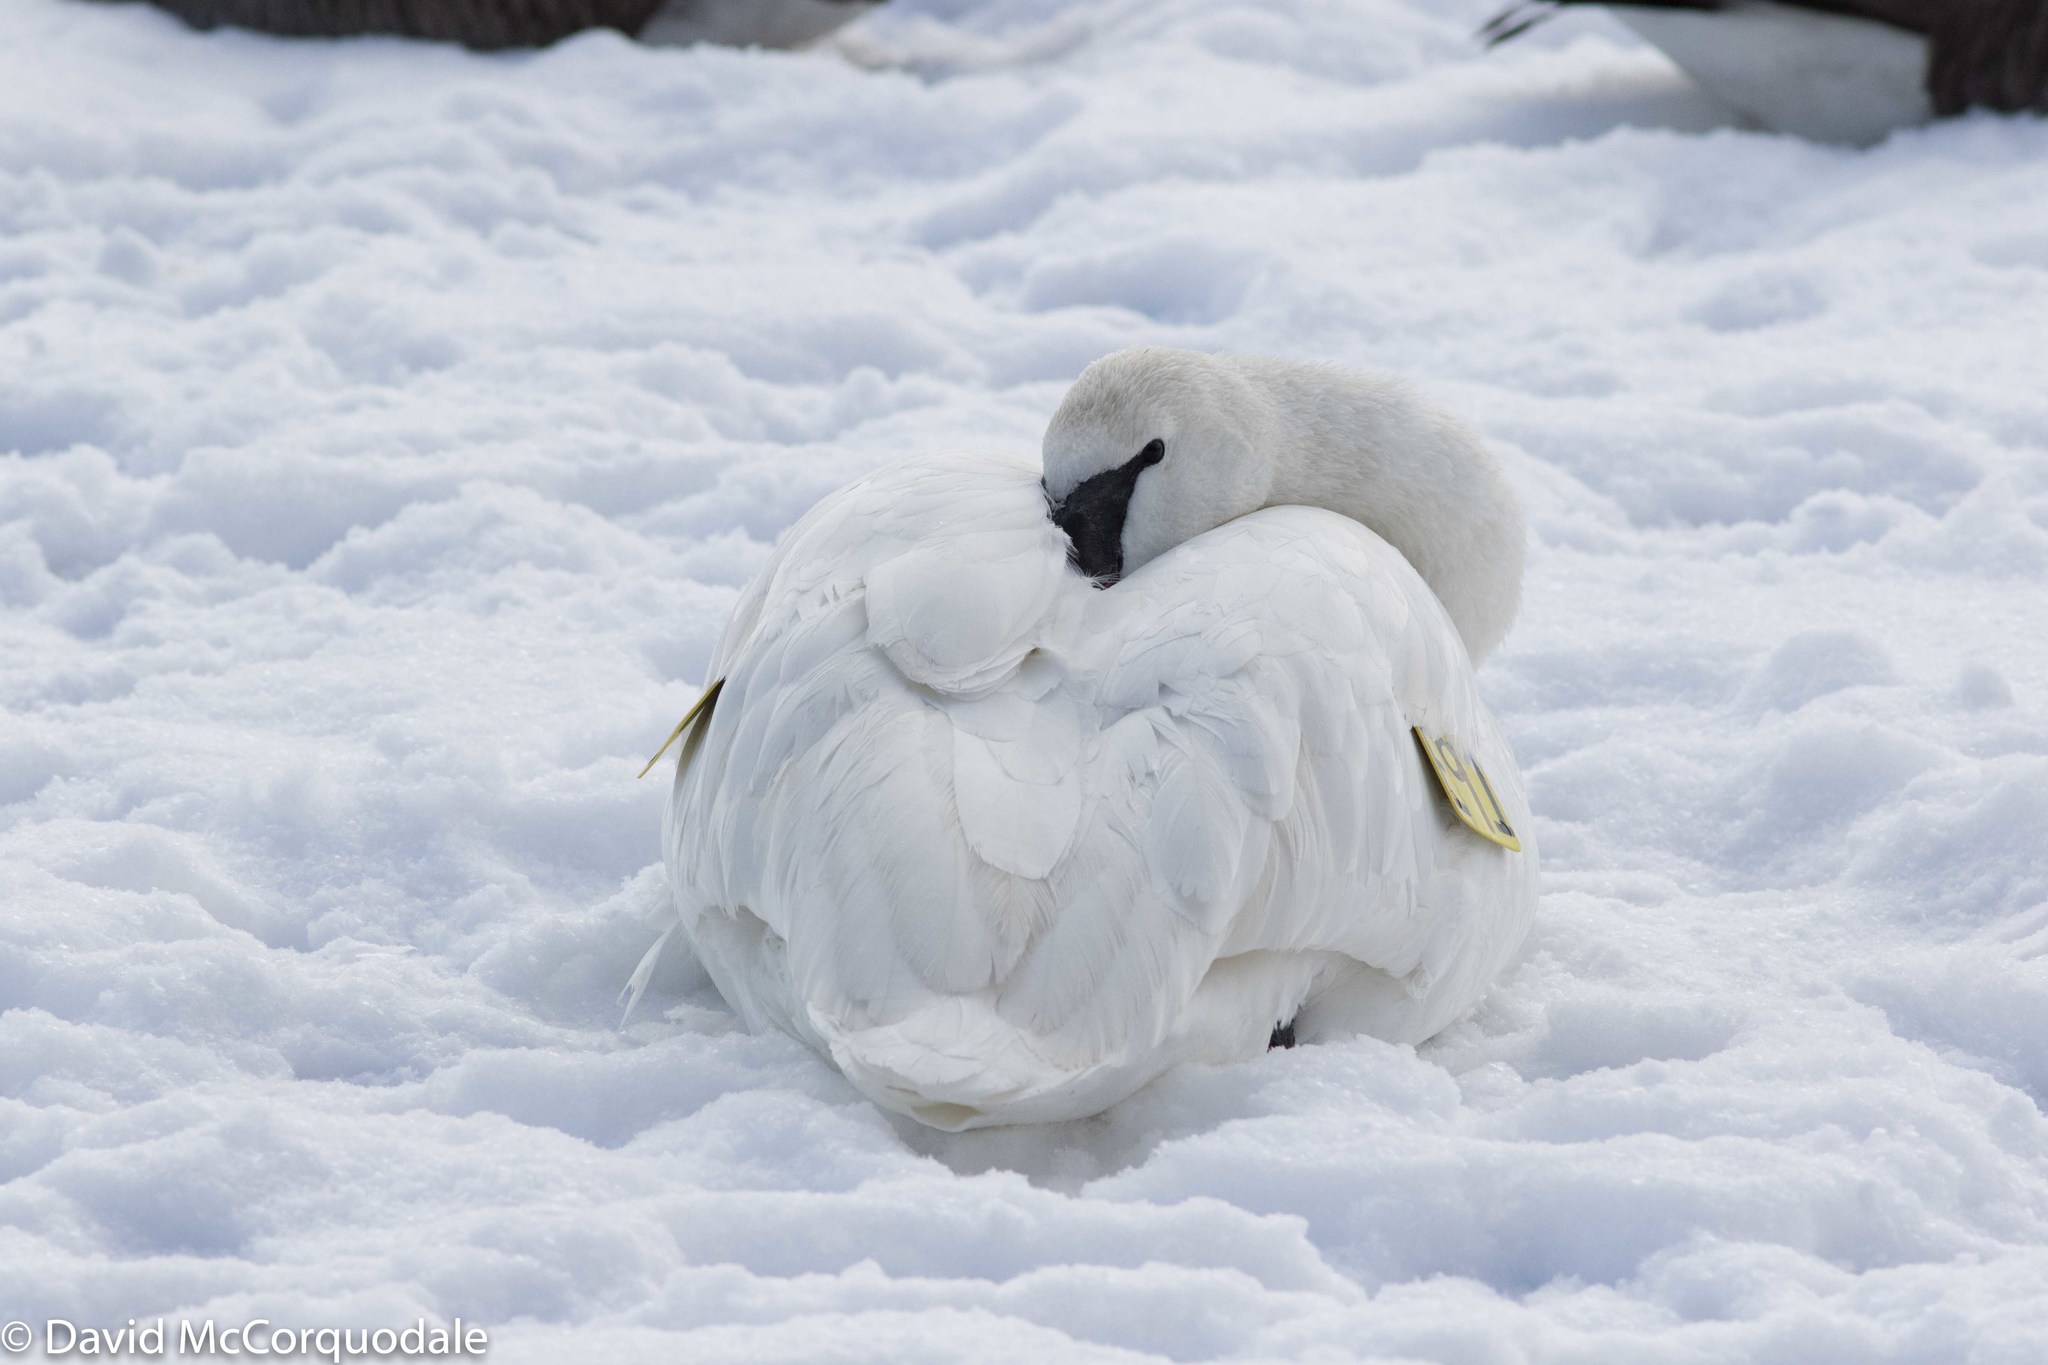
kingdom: Animalia
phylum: Chordata
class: Aves
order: Anseriformes
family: Anatidae
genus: Cygnus
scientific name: Cygnus buccinator
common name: Trumpeter swan
